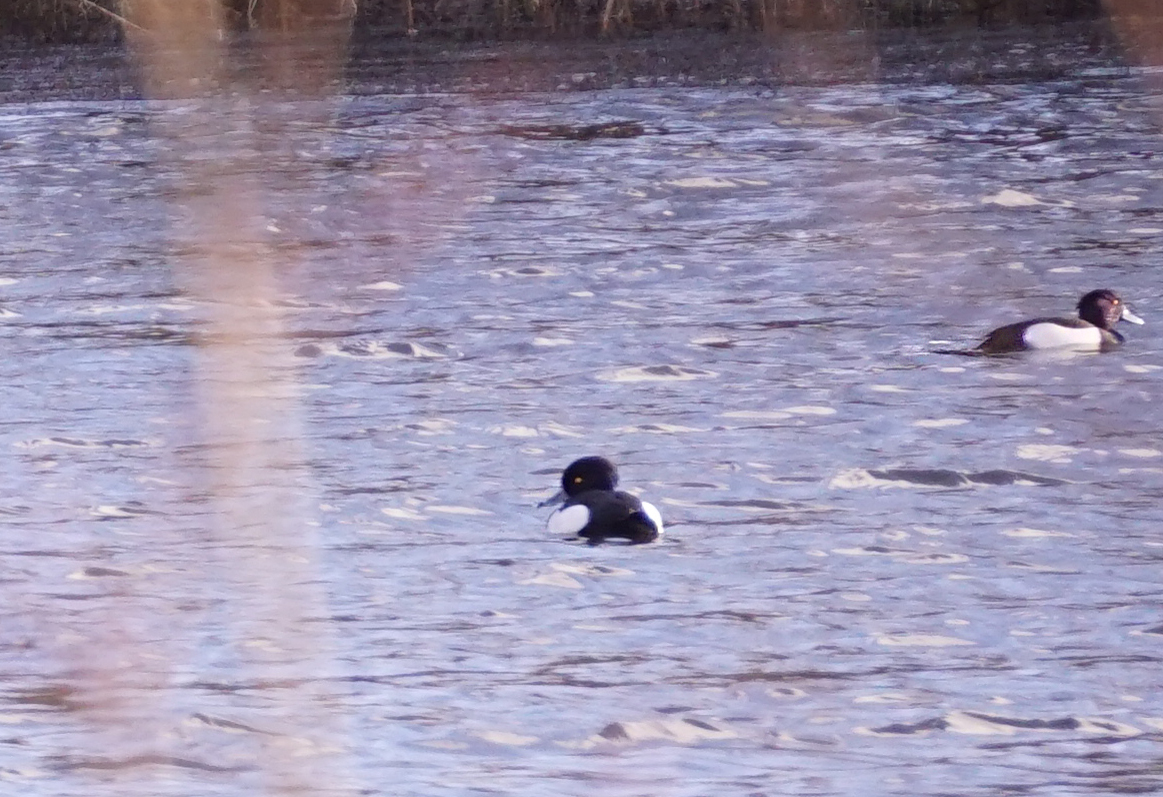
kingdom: Animalia
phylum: Chordata
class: Aves
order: Anseriformes
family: Anatidae
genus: Aythya
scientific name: Aythya fuligula
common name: Tufted duck
